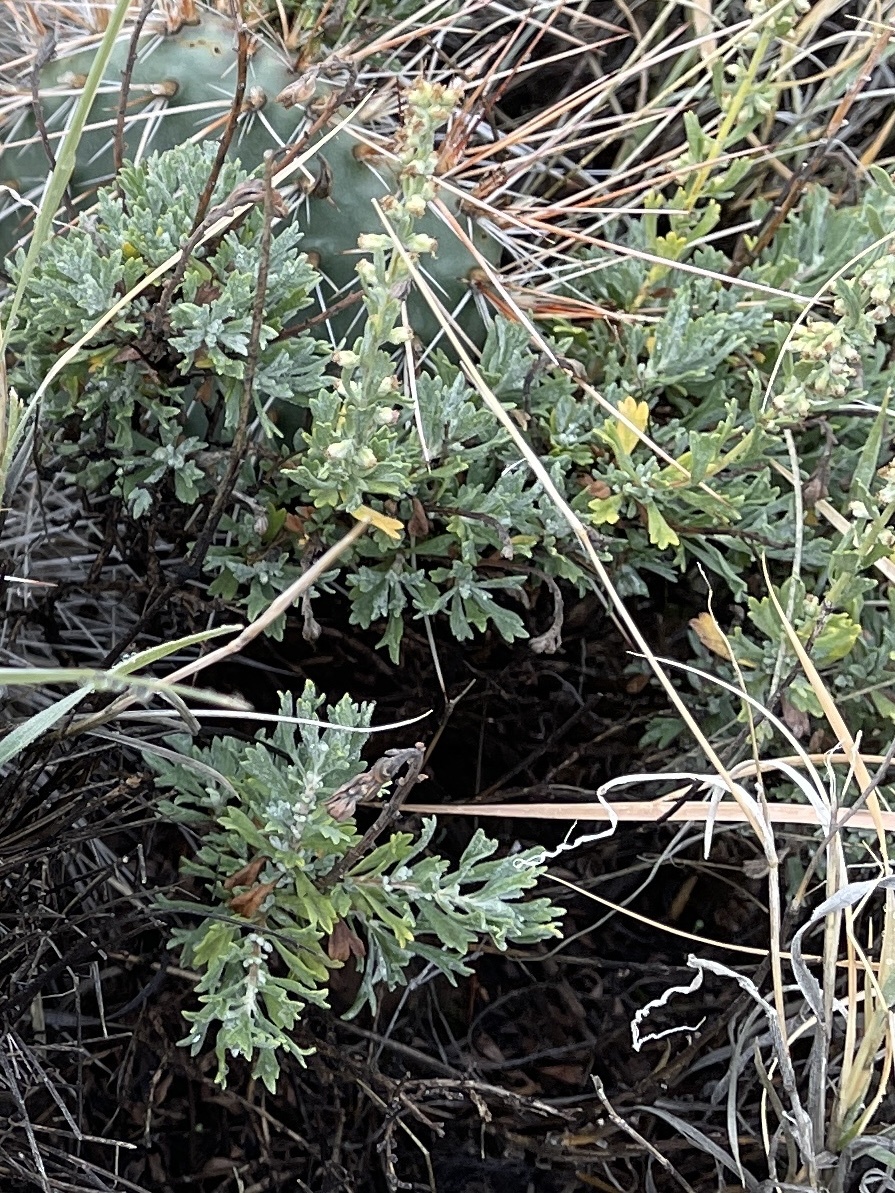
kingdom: Plantae
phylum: Tracheophyta
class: Magnoliopsida
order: Asterales
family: Asteraceae
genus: Artemisia
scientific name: Artemisia tridentata
